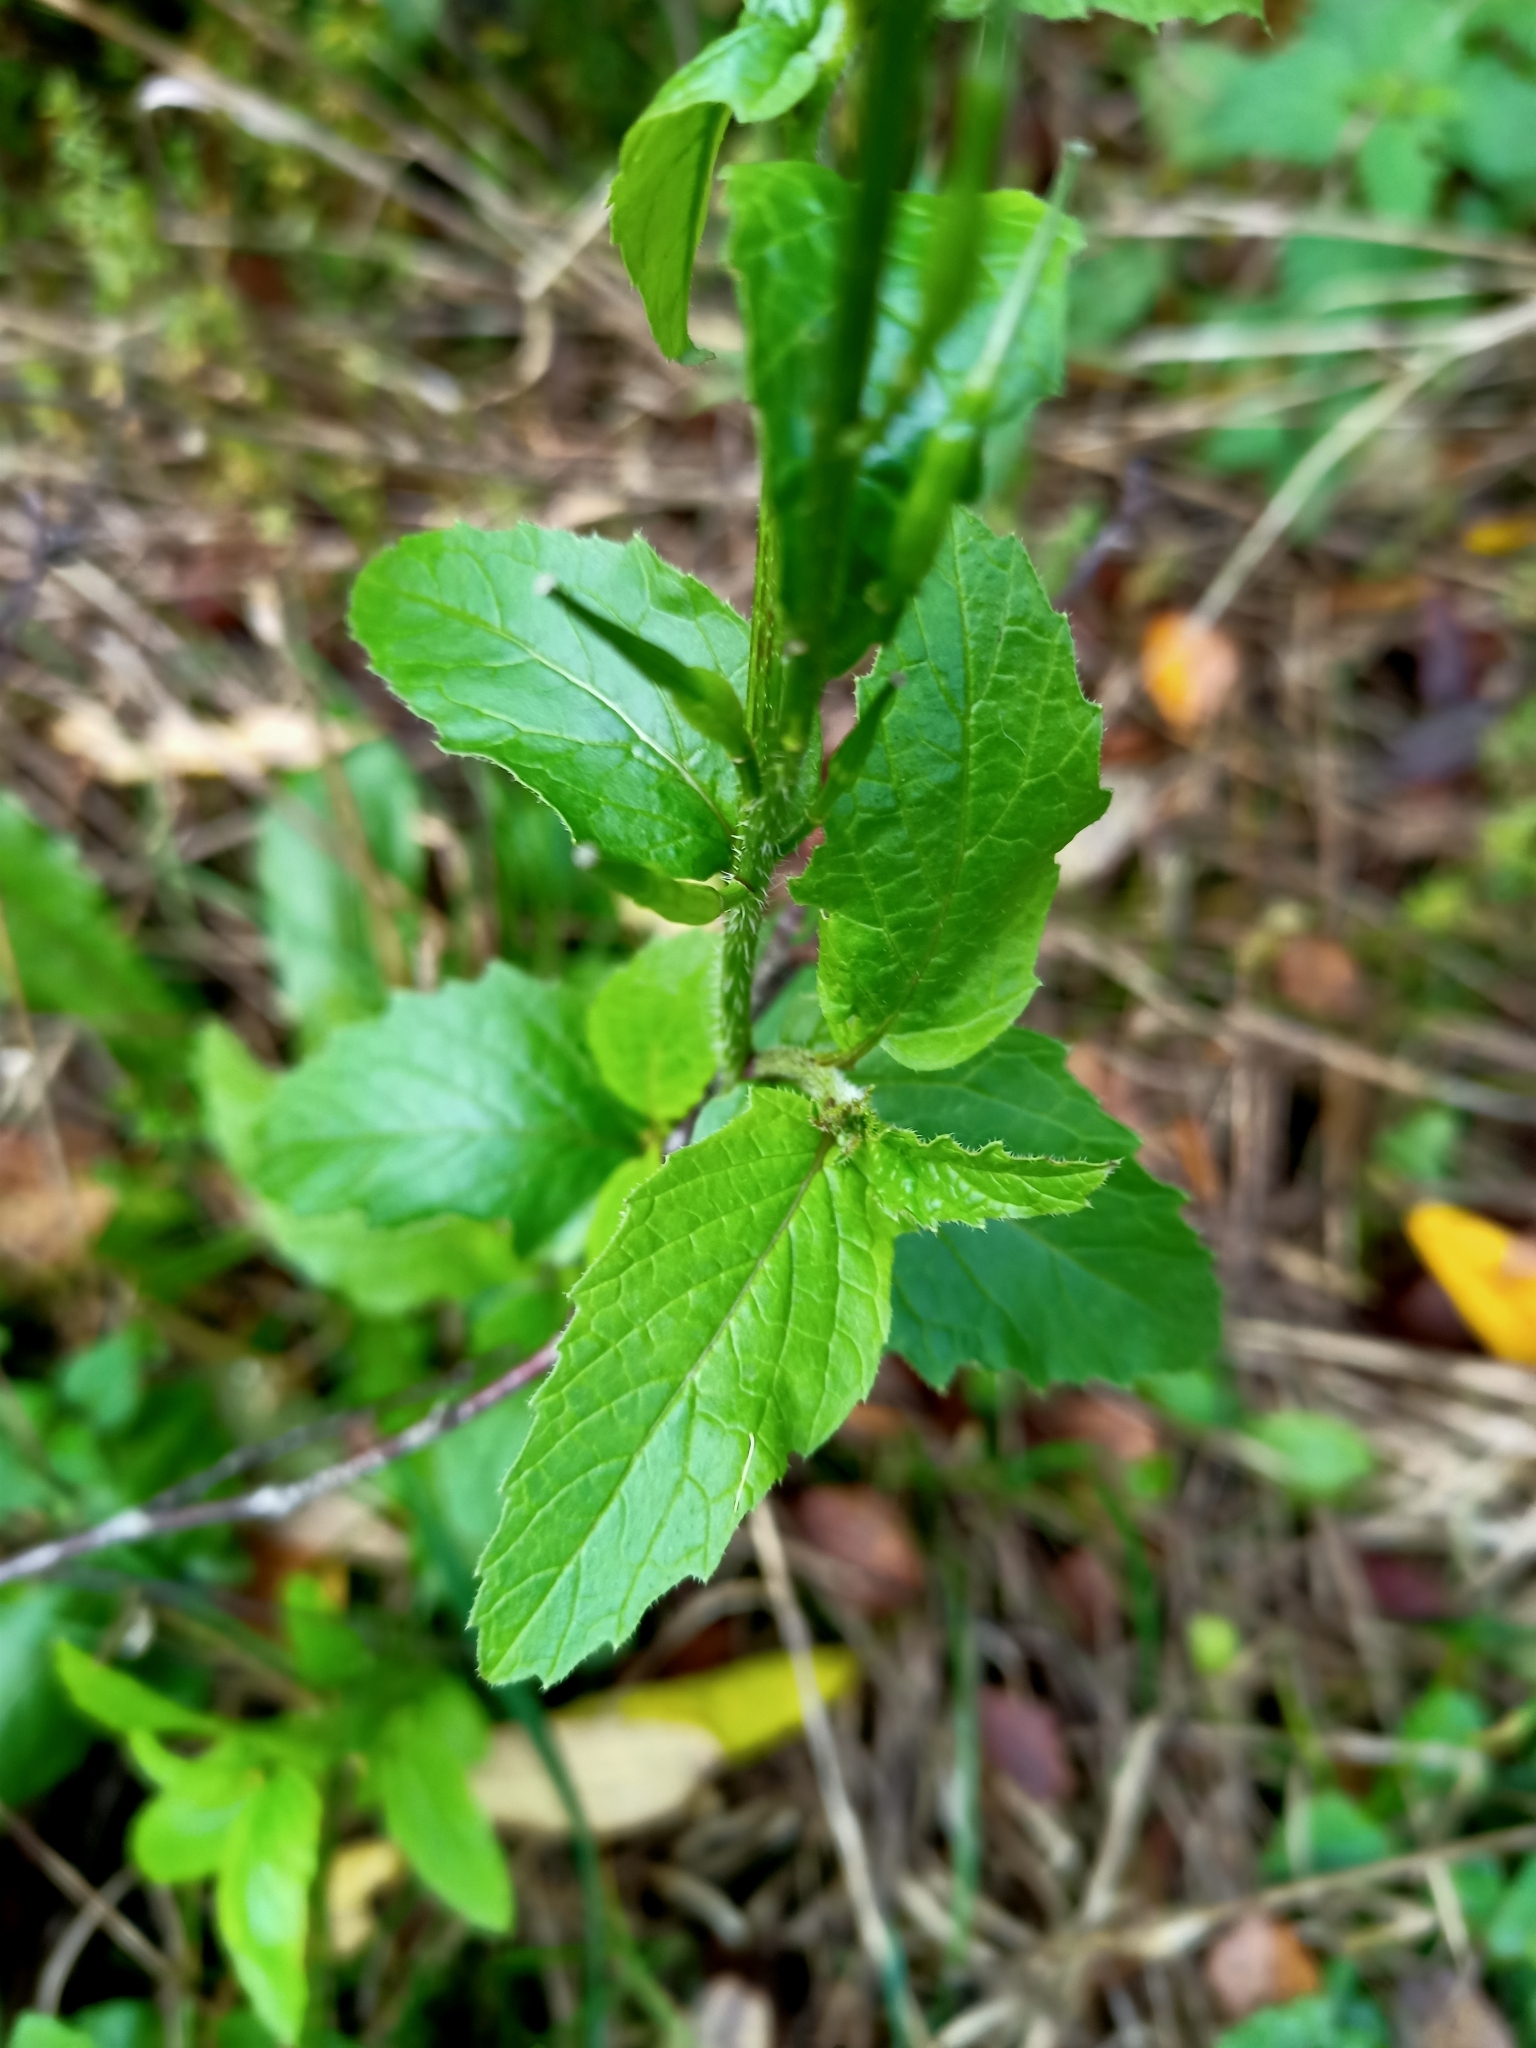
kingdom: Plantae
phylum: Tracheophyta
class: Magnoliopsida
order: Brassicales
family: Brassicaceae
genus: Sinapis
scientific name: Sinapis arvensis
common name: Charlock
